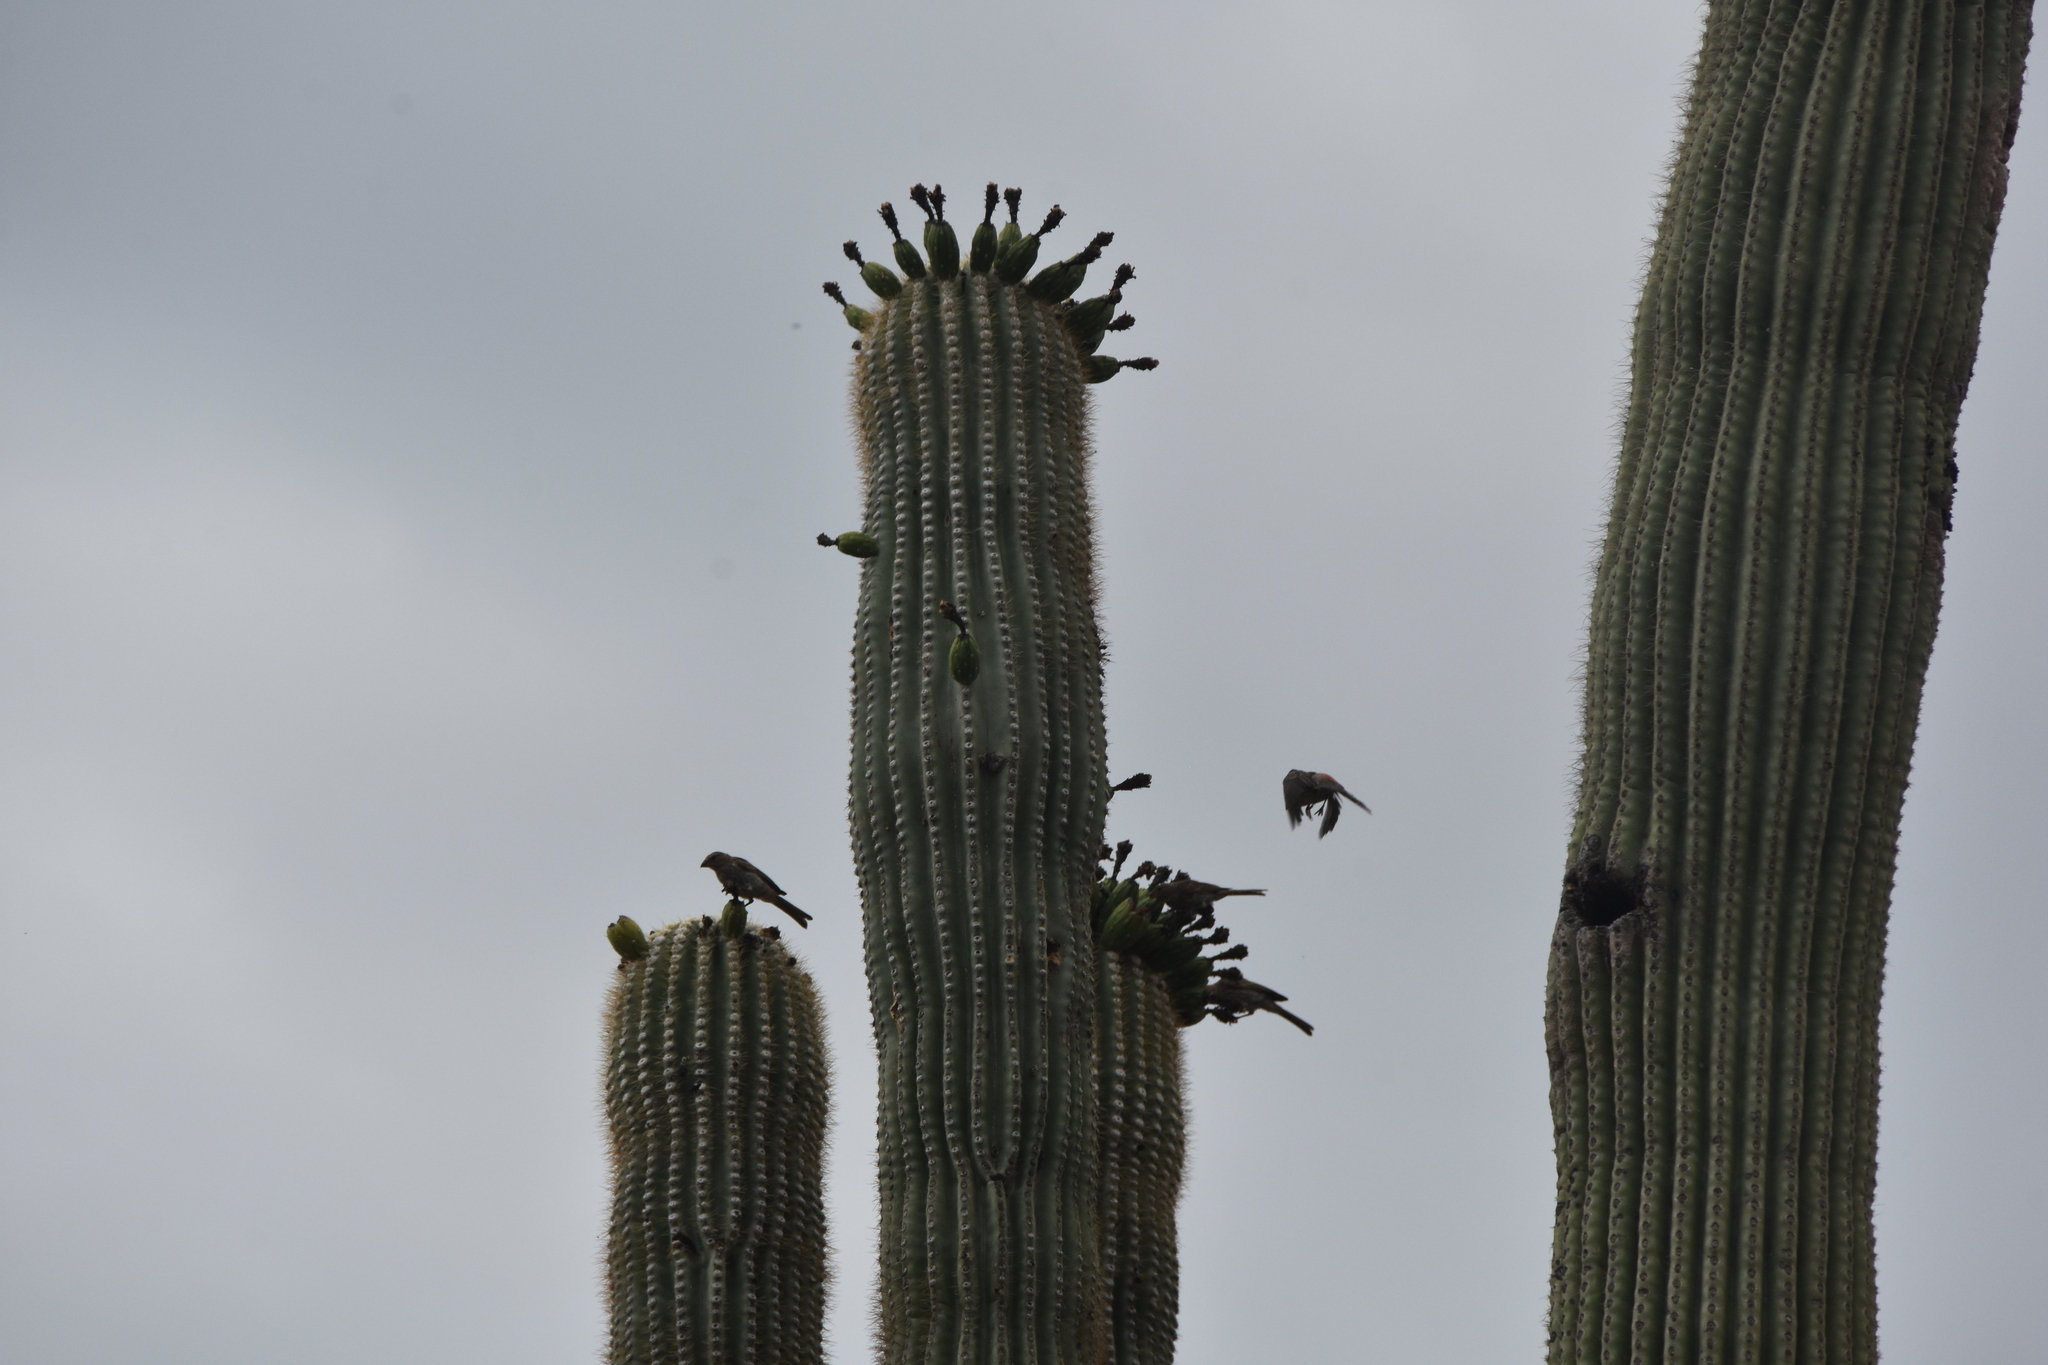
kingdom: Animalia
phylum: Chordata
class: Aves
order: Passeriformes
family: Fringillidae
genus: Haemorhous
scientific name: Haemorhous mexicanus
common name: House finch
